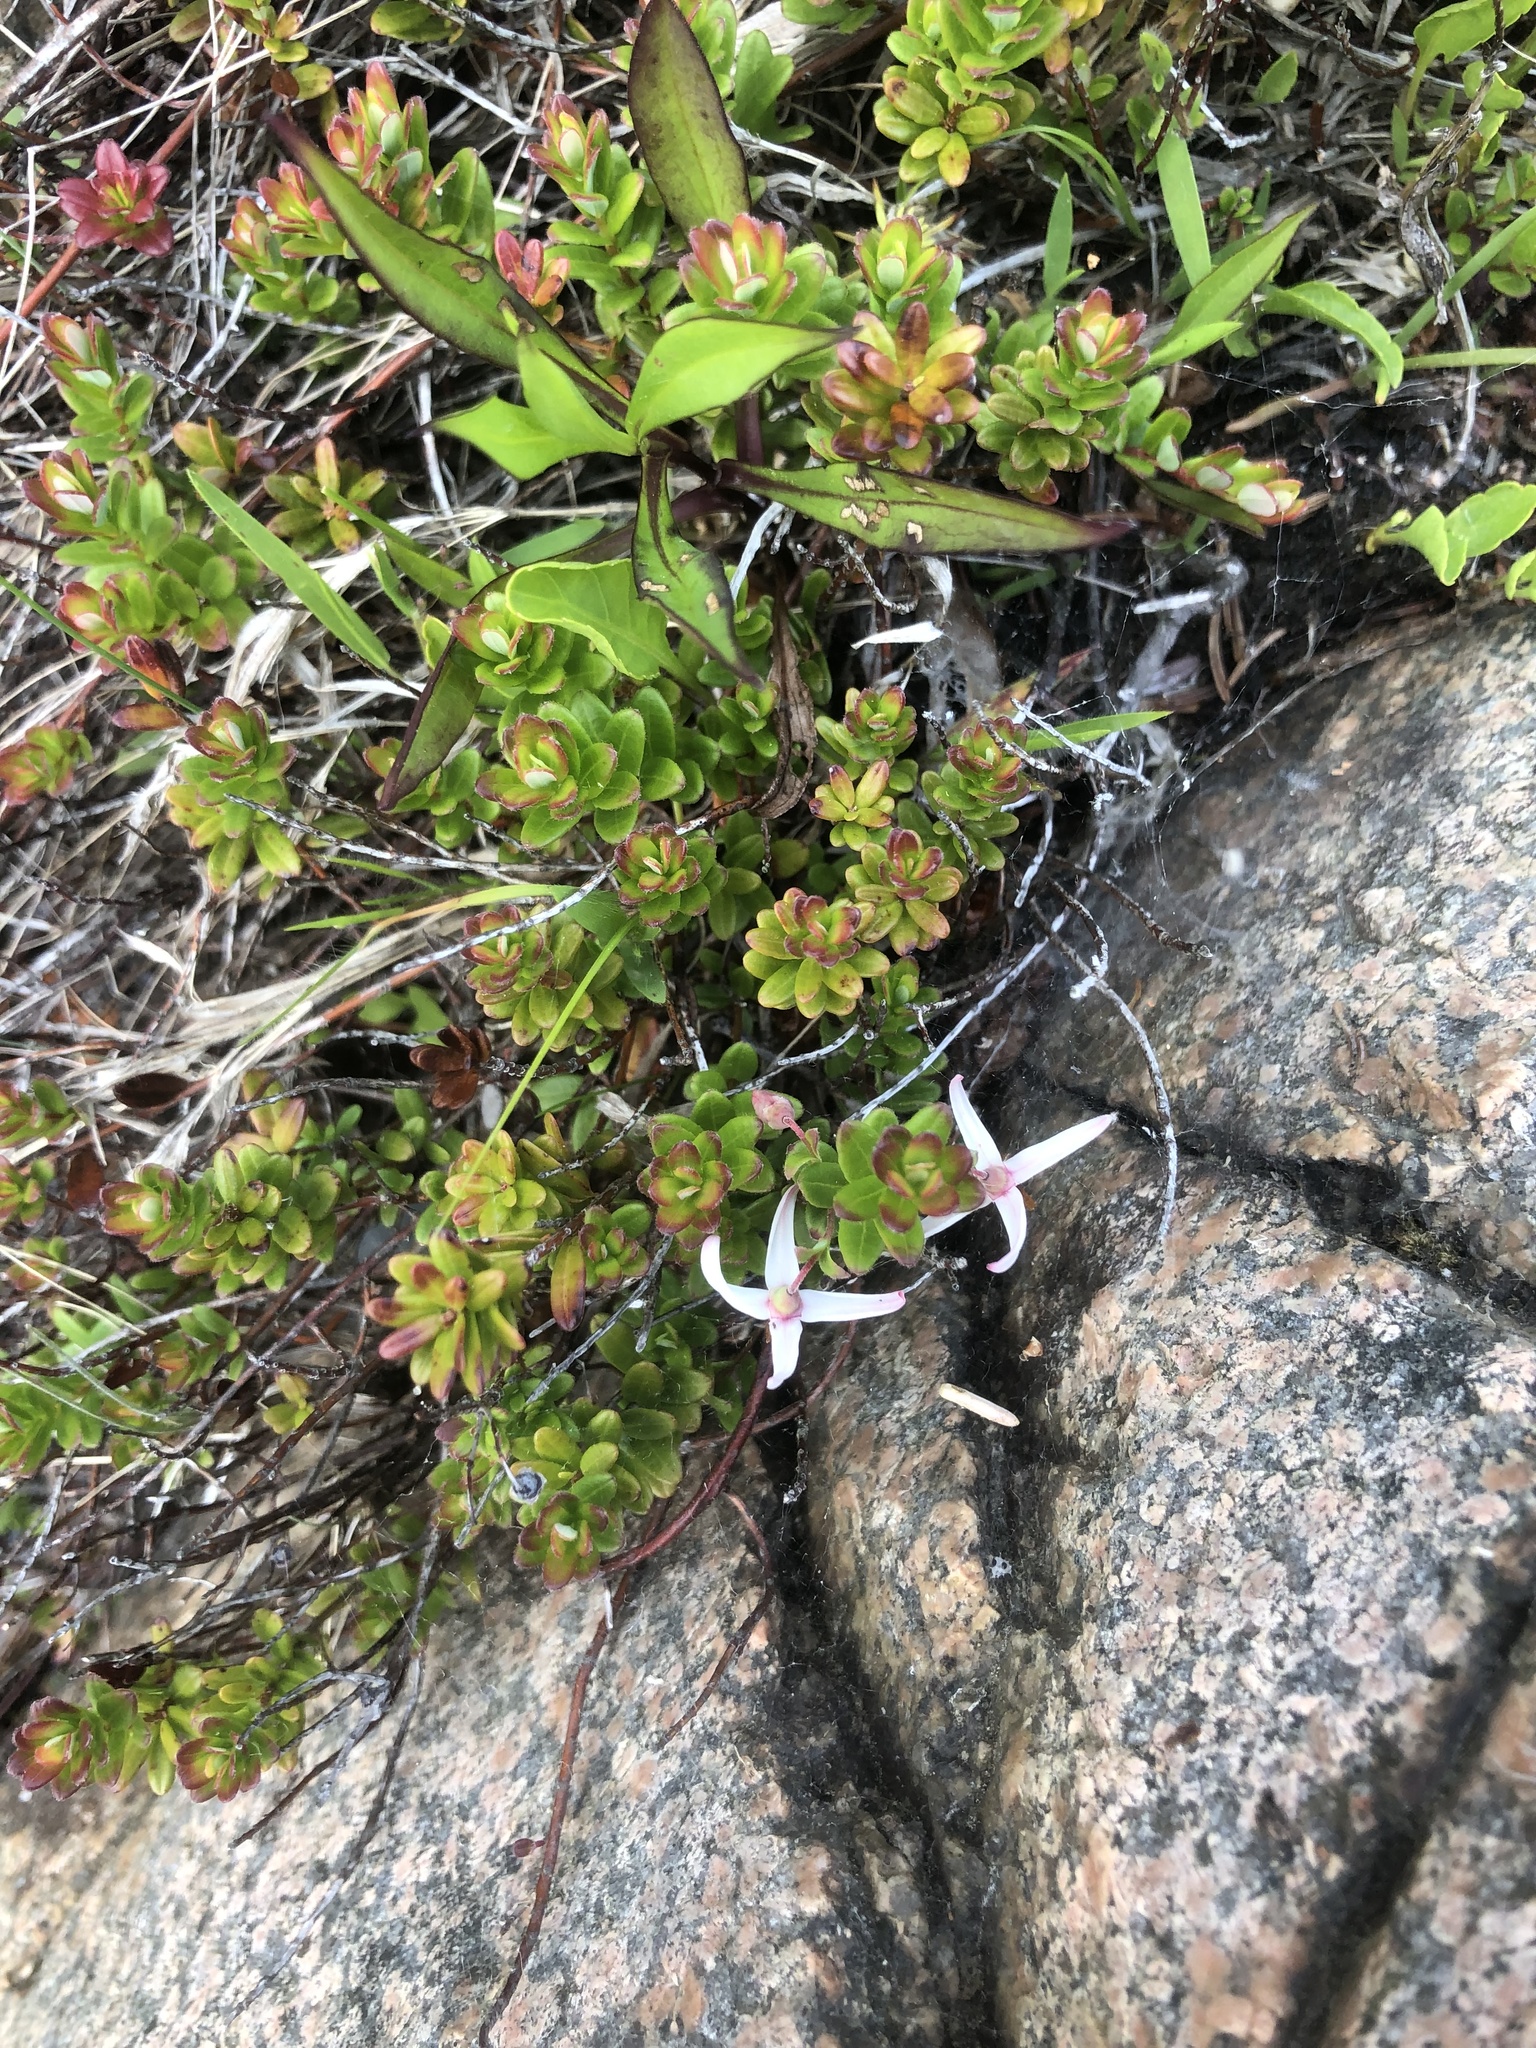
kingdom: Plantae
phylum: Tracheophyta
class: Magnoliopsida
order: Ericales
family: Ericaceae
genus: Vaccinium
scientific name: Vaccinium macrocarpon
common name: American cranberry
